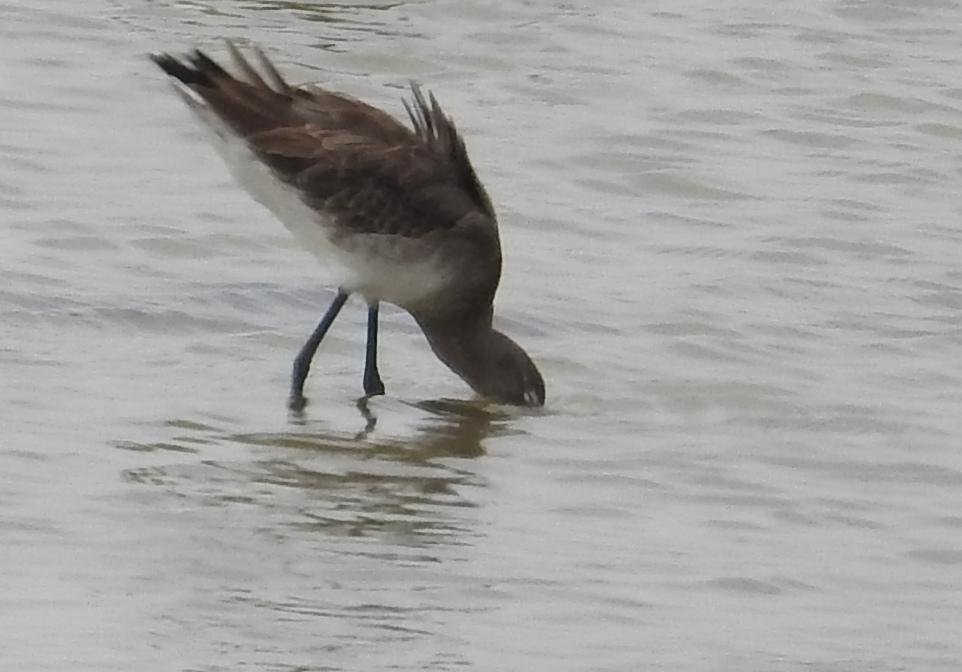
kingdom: Animalia
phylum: Chordata
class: Aves
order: Charadriiformes
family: Scolopacidae
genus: Limosa
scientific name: Limosa limosa
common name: Black-tailed godwit
